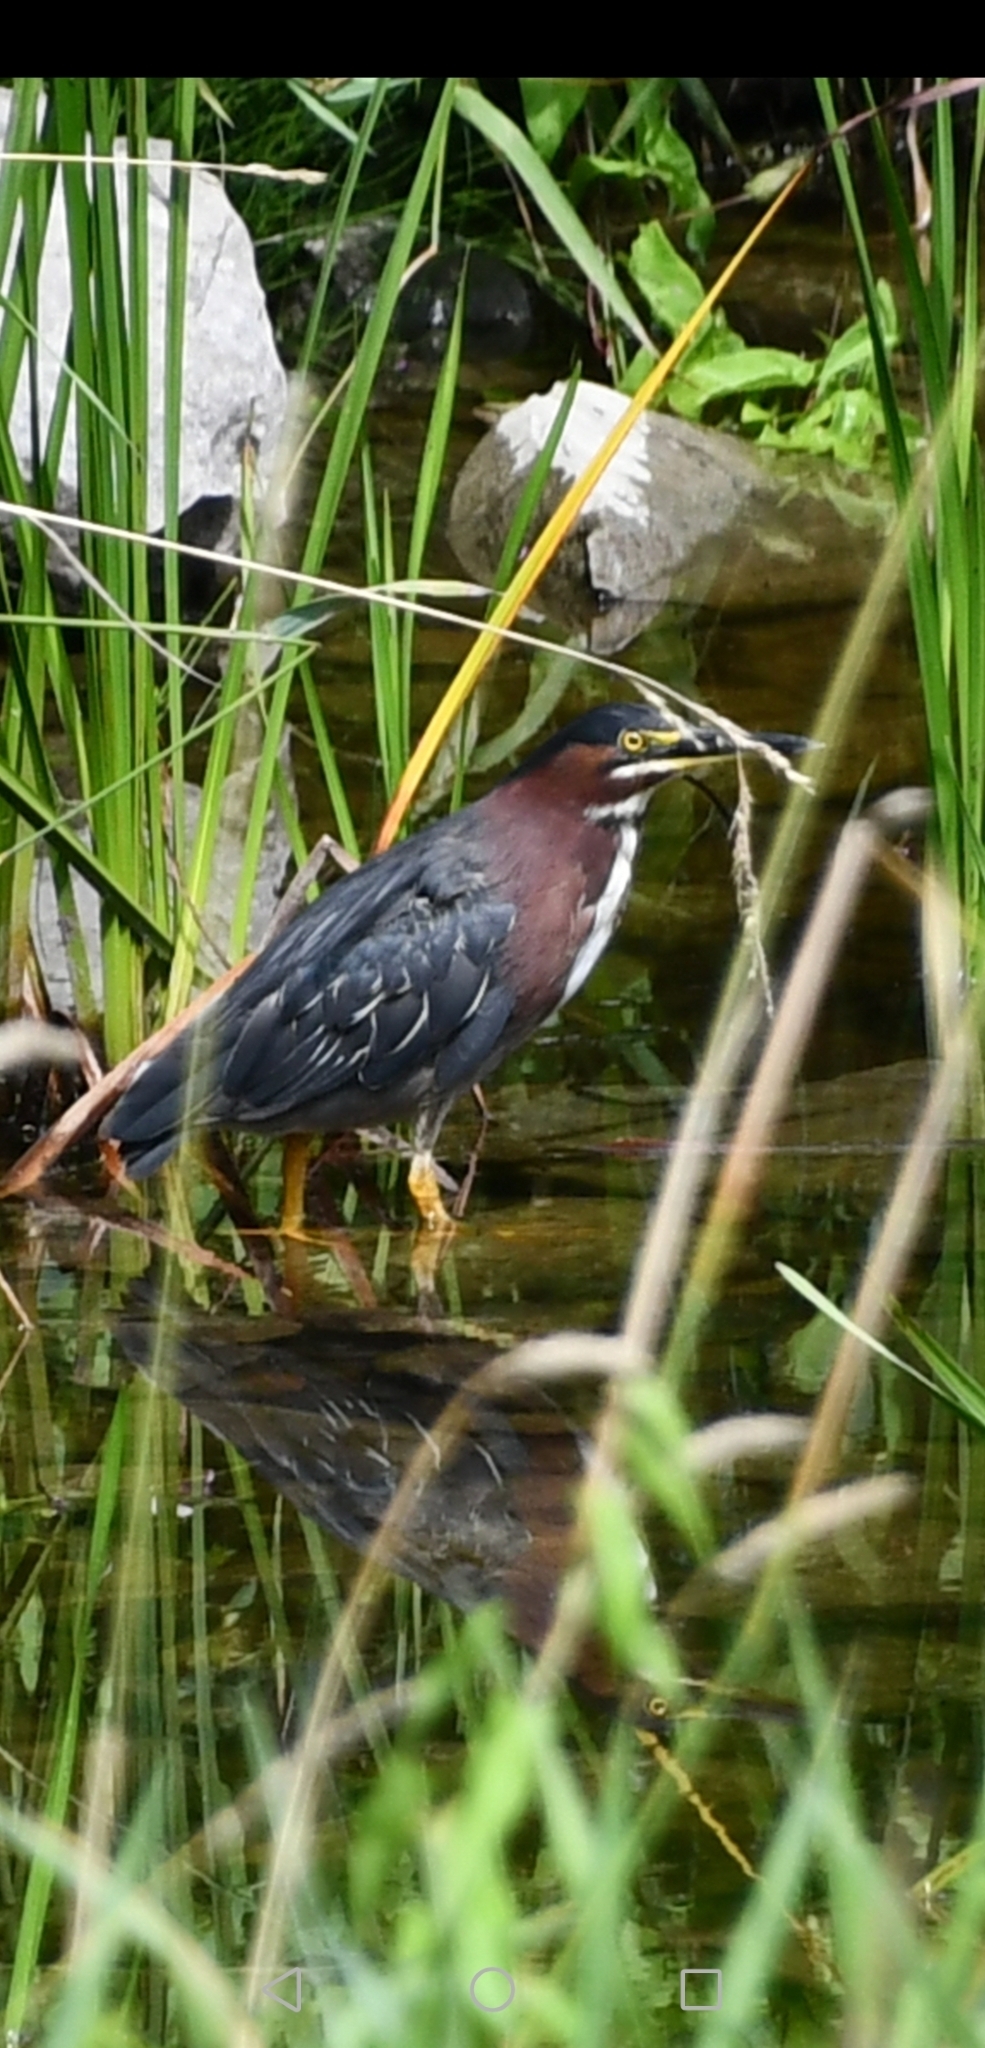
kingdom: Animalia
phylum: Chordata
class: Aves
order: Pelecaniformes
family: Ardeidae
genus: Butorides
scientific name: Butorides virescens
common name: Green heron
